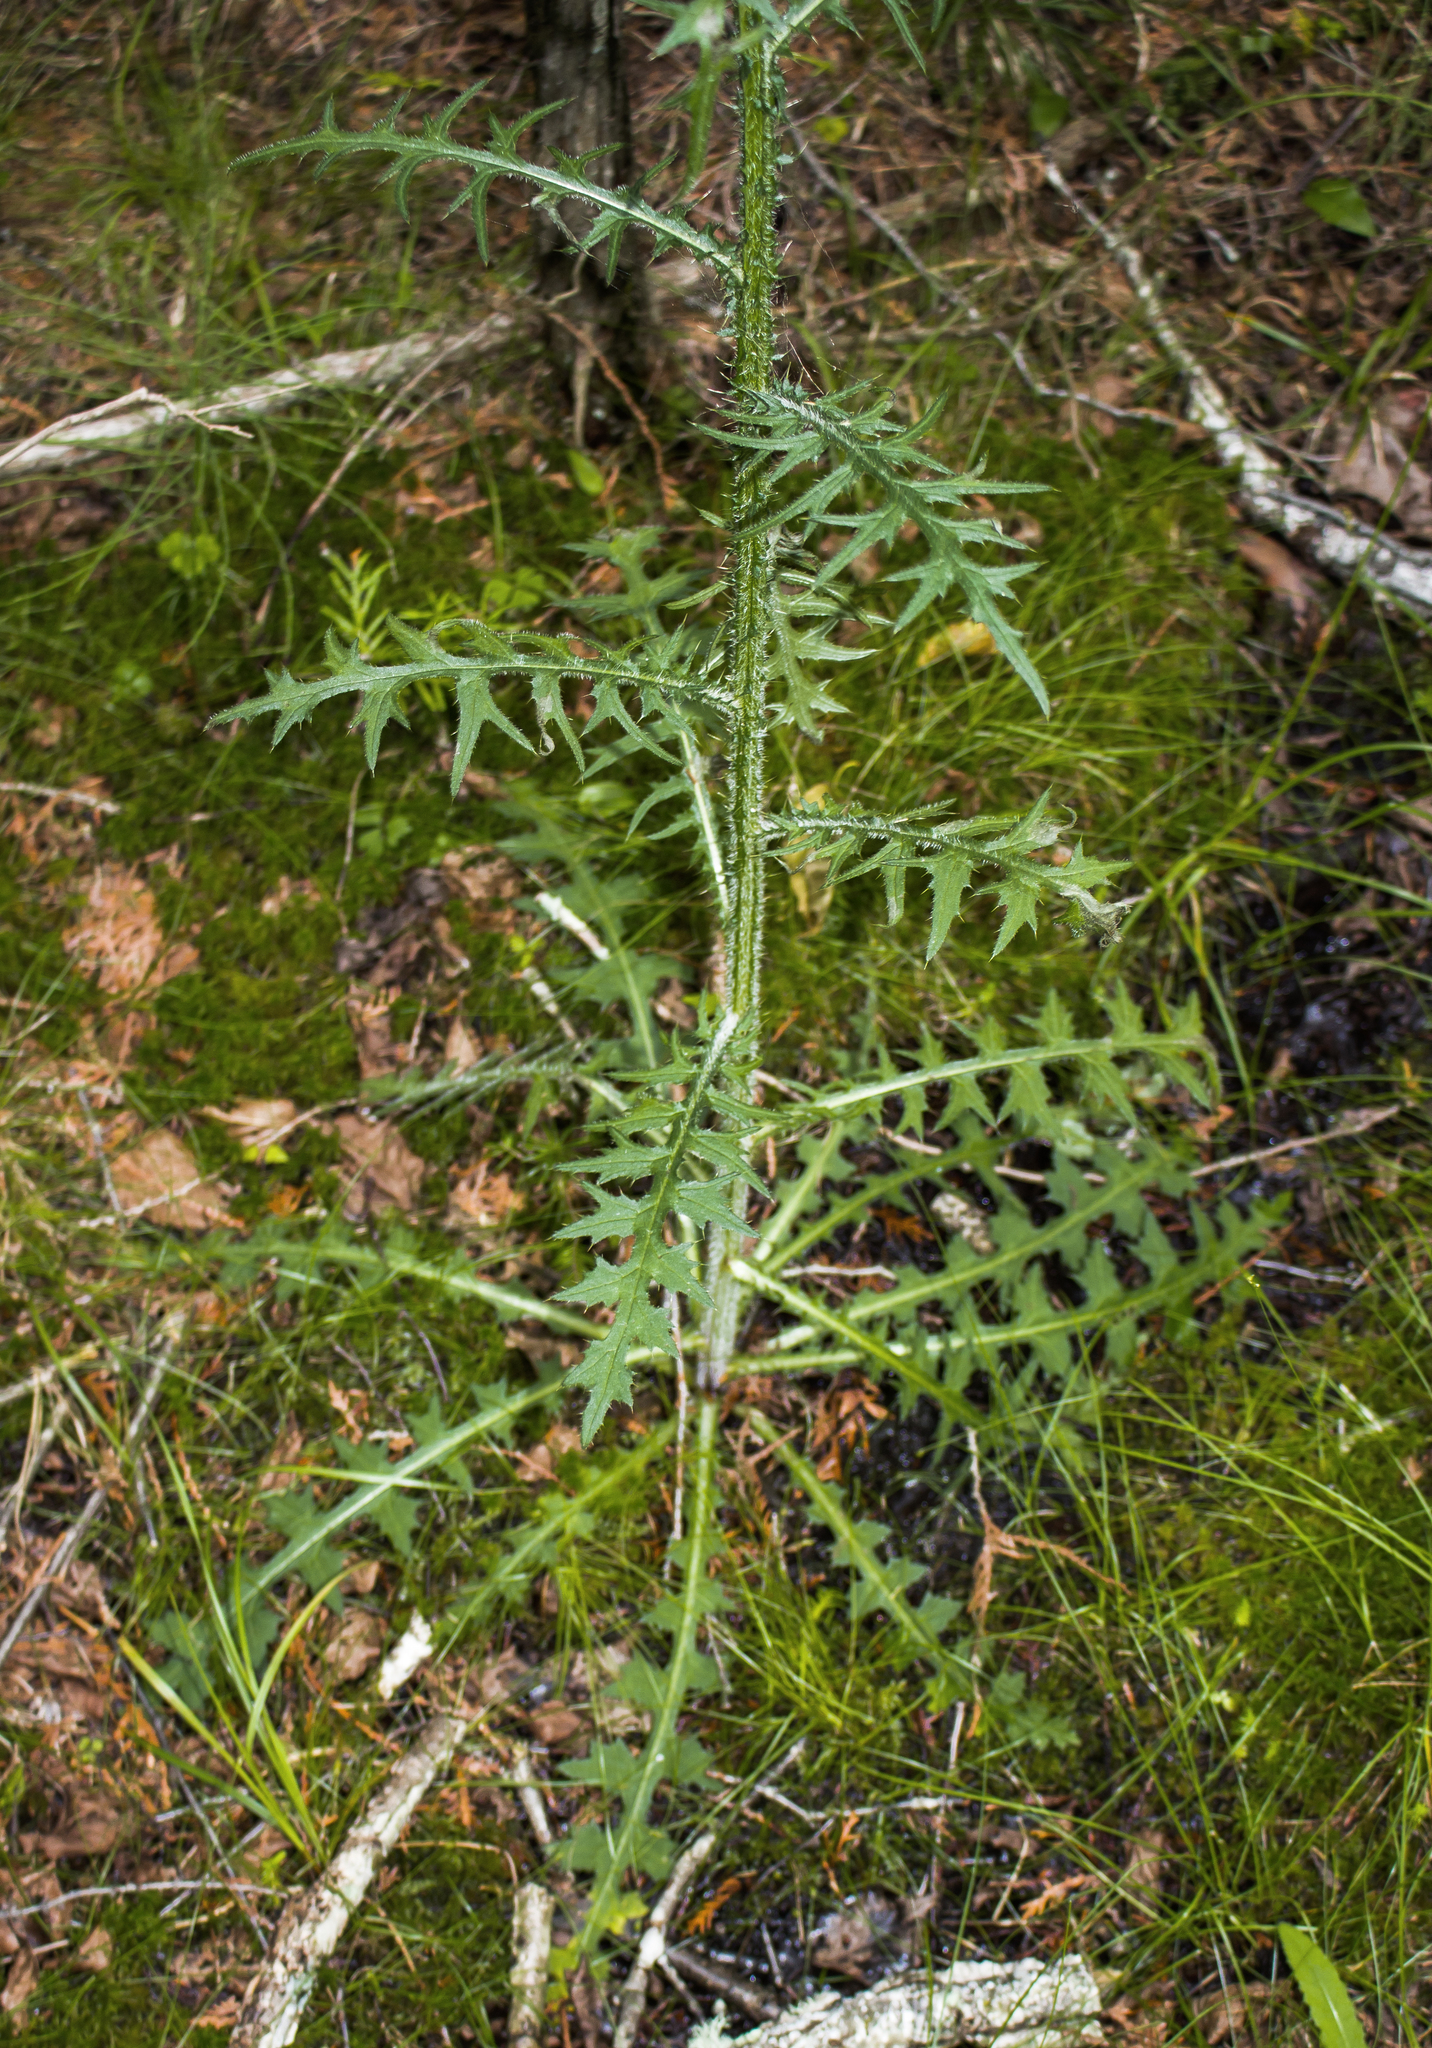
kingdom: Plantae
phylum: Tracheophyta
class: Magnoliopsida
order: Asterales
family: Asteraceae
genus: Cirsium
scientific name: Cirsium palustre
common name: Marsh thistle
